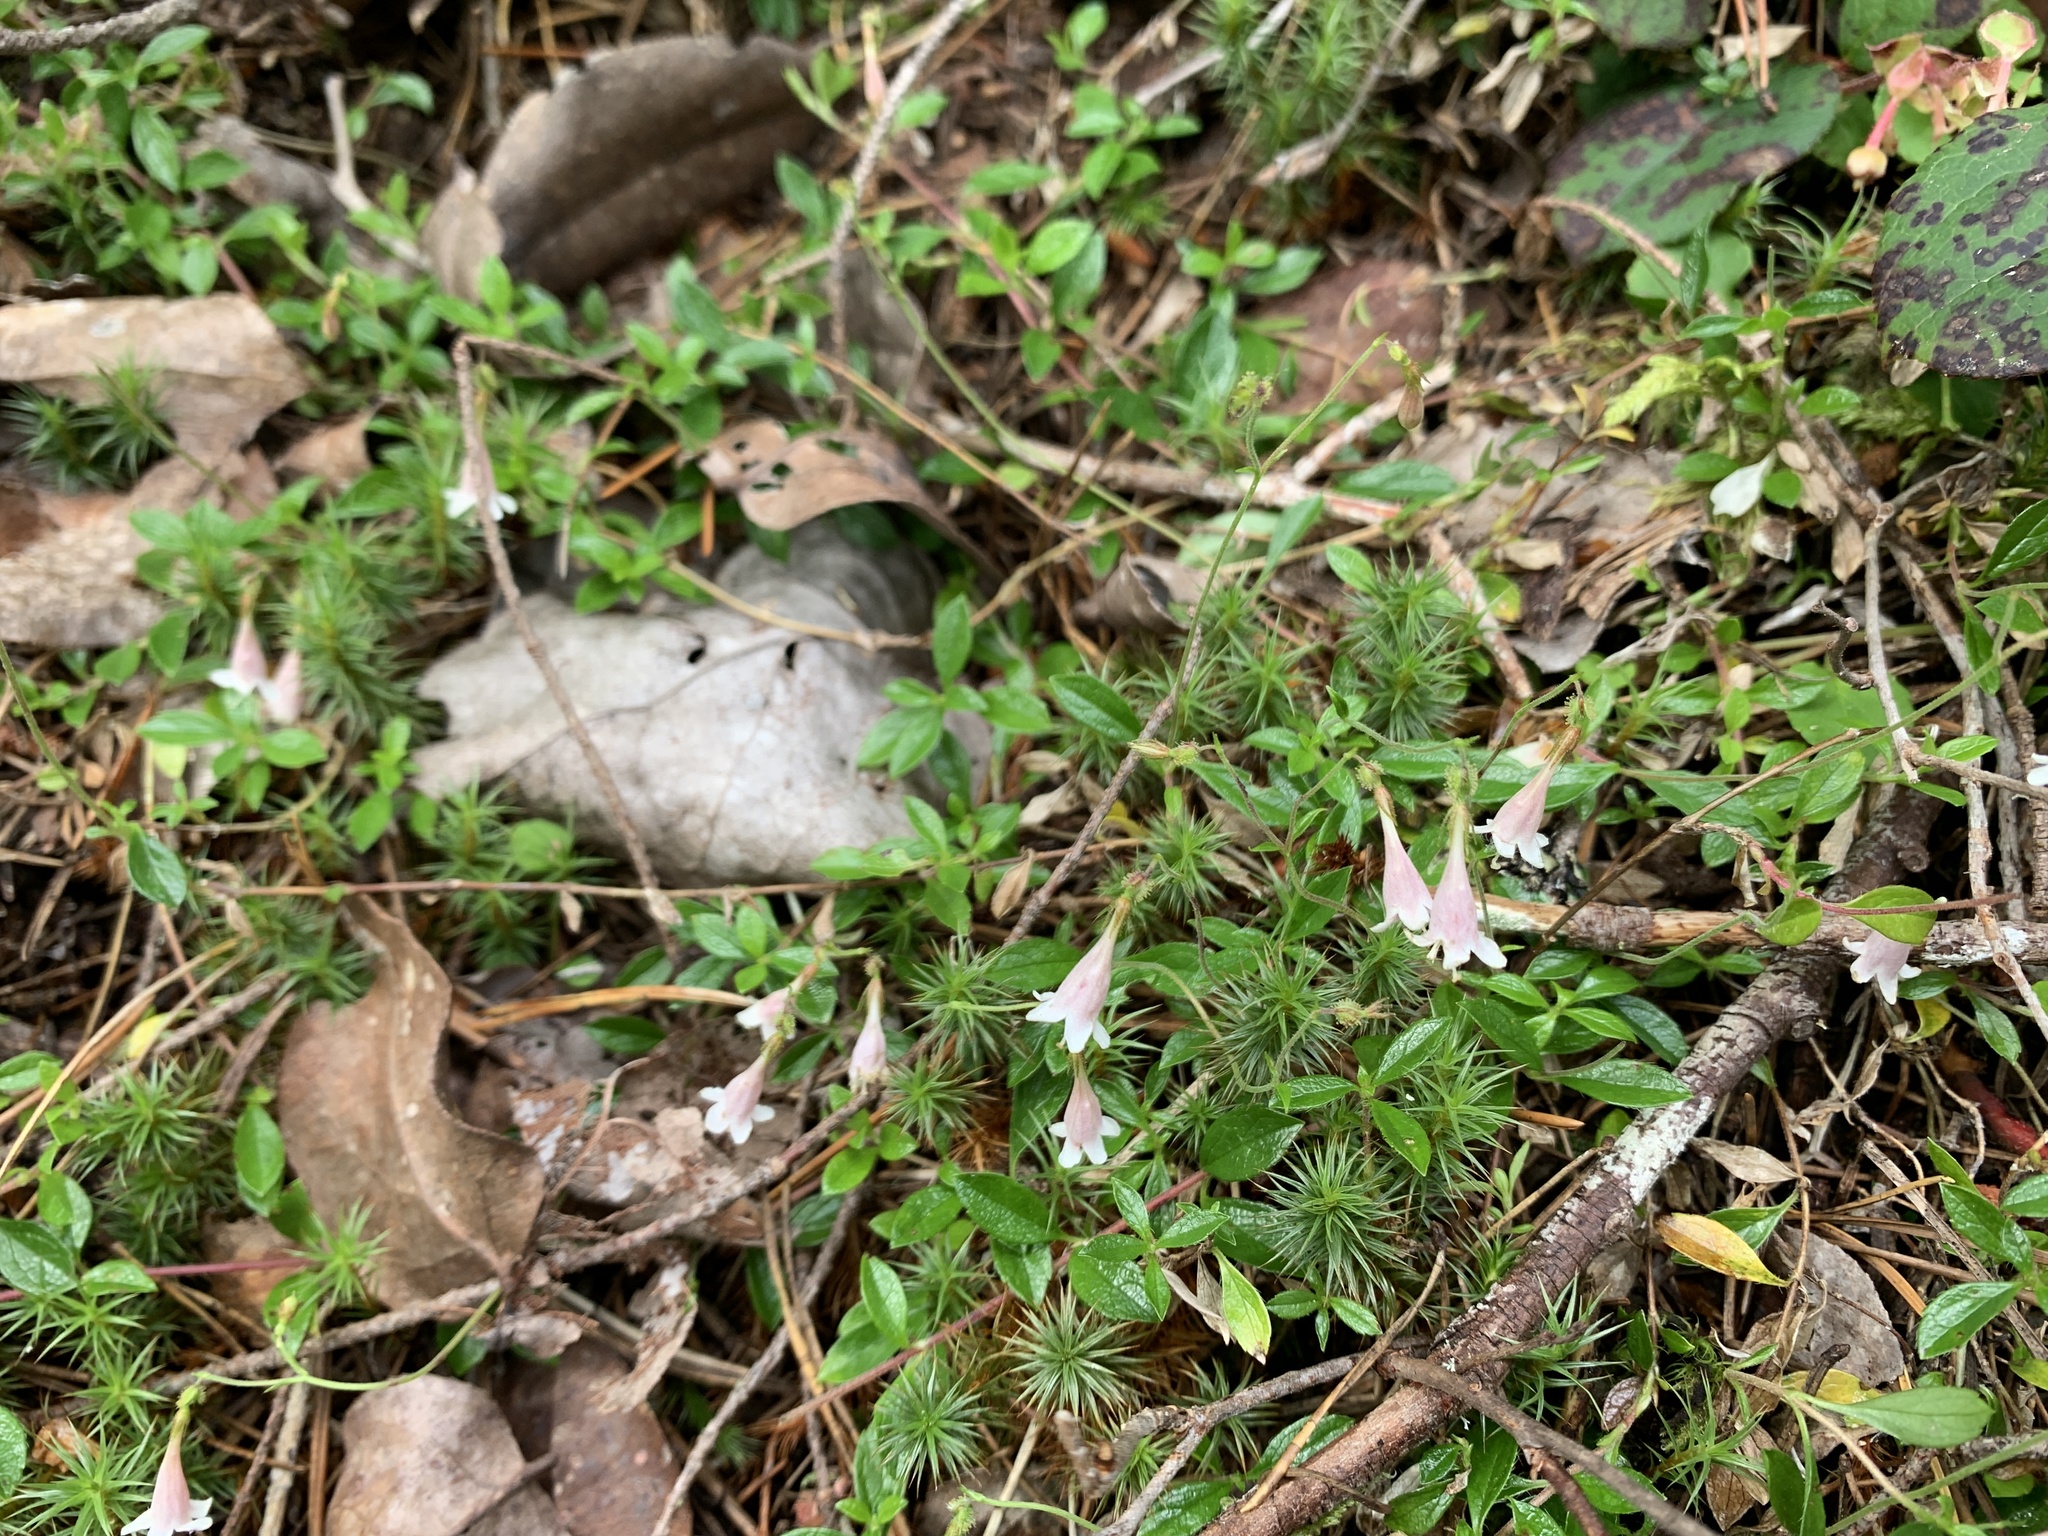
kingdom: Plantae
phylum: Tracheophyta
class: Magnoliopsida
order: Dipsacales
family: Caprifoliaceae
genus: Linnaea
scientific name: Linnaea borealis
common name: Twinflower
